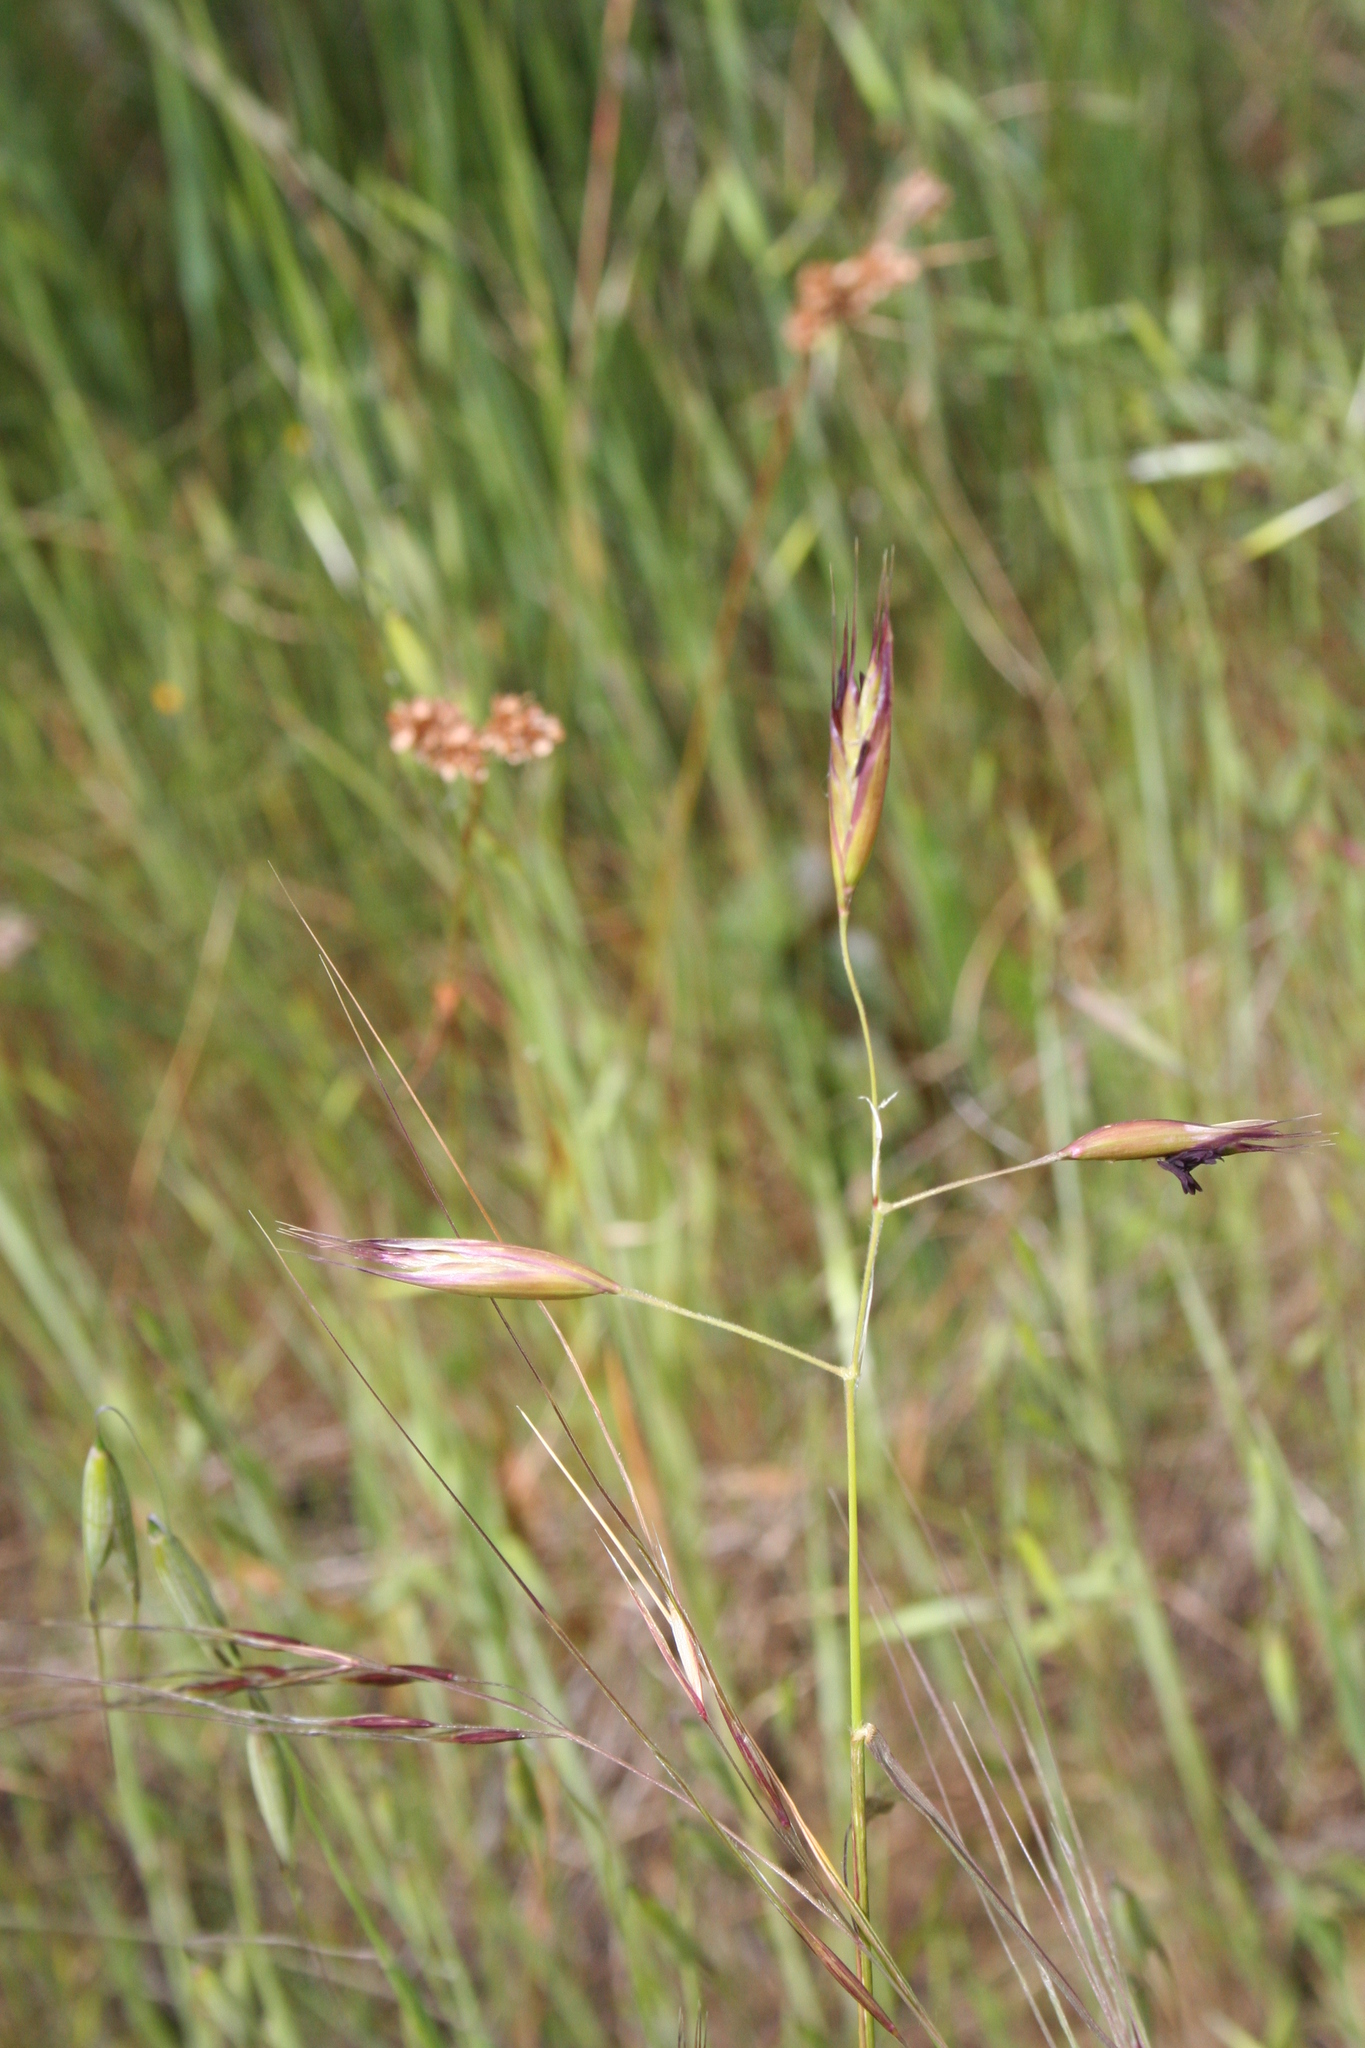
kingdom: Plantae
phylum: Tracheophyta
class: Liliopsida
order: Poales
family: Poaceae
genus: Danthonia
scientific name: Danthonia californica
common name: California oat grass
